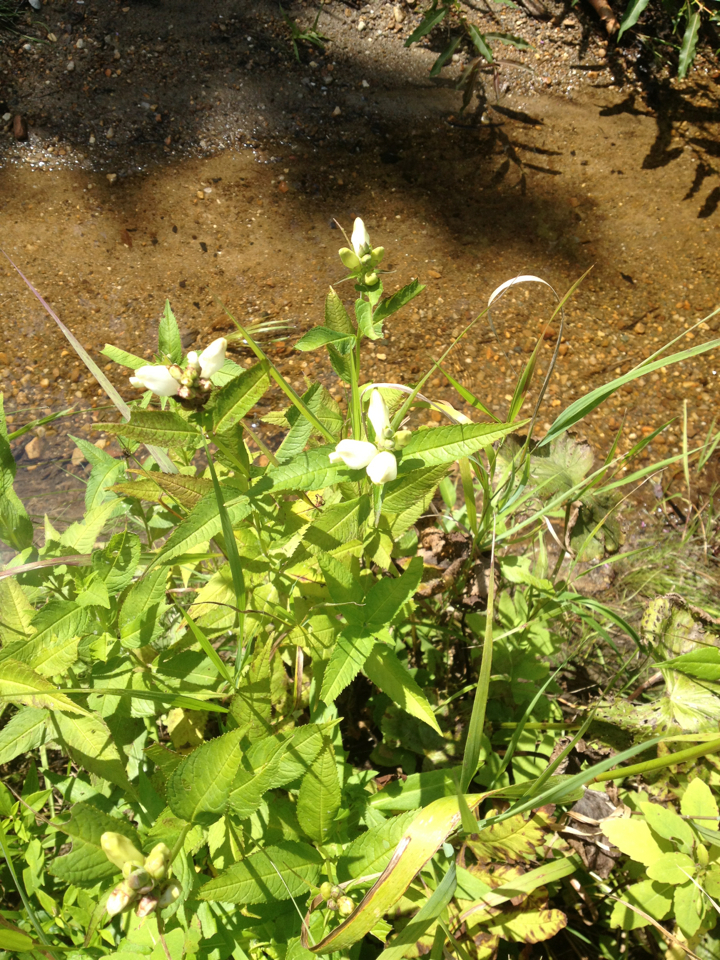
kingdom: Plantae
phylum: Tracheophyta
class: Magnoliopsida
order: Lamiales
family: Plantaginaceae
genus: Chelone
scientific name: Chelone glabra
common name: Snakehead
